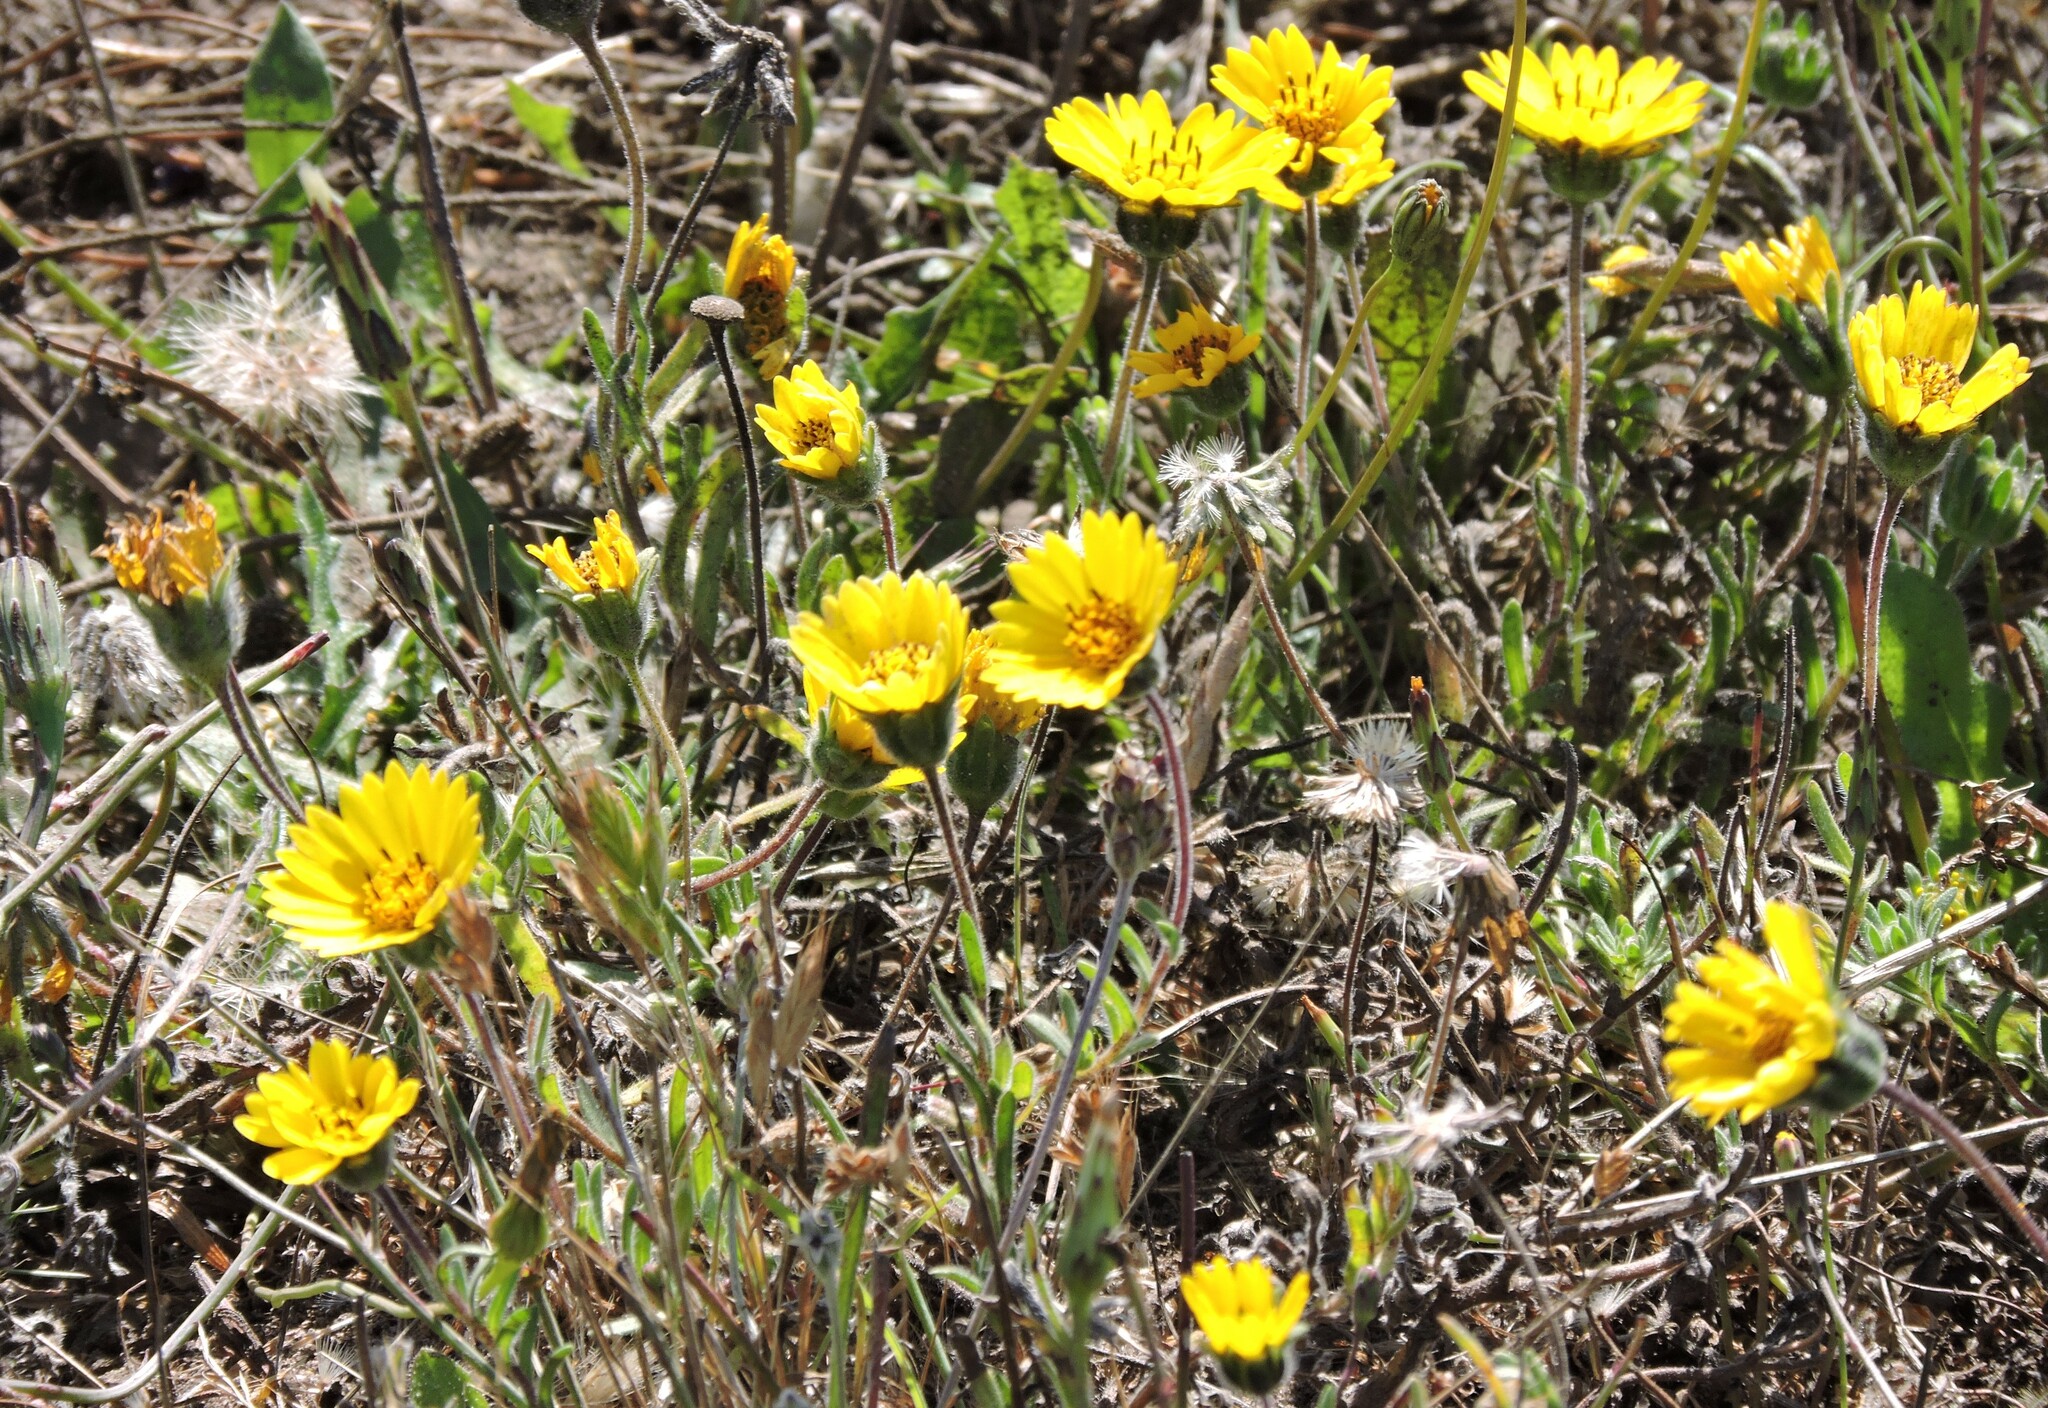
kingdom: Plantae
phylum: Tracheophyta
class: Magnoliopsida
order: Asterales
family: Asteraceae
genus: Layia
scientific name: Layia platyglossa
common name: Tidy-tips
